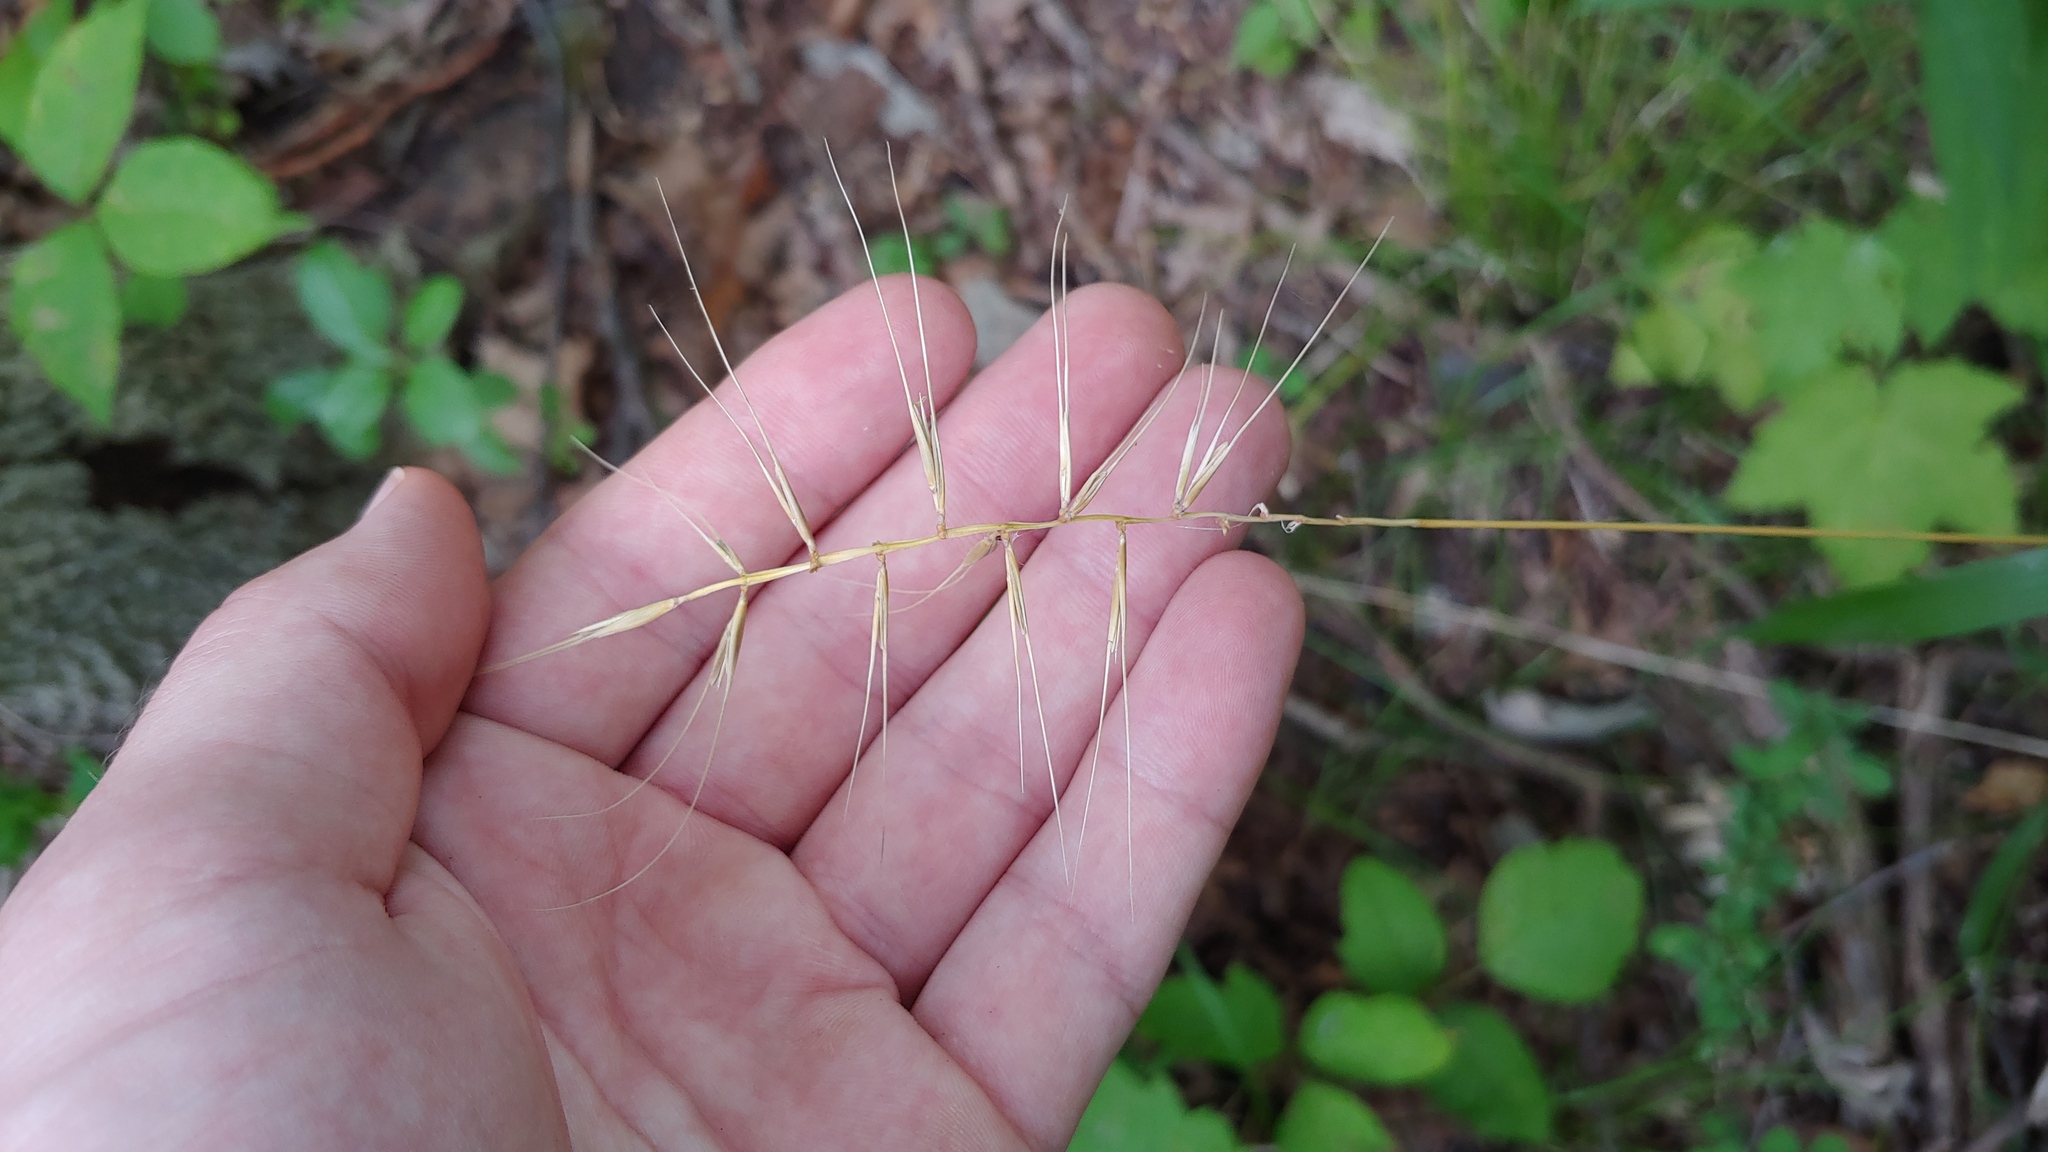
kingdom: Plantae
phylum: Tracheophyta
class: Liliopsida
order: Poales
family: Poaceae
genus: Elymus
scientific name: Elymus hystrix
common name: Bottlebrush grass
